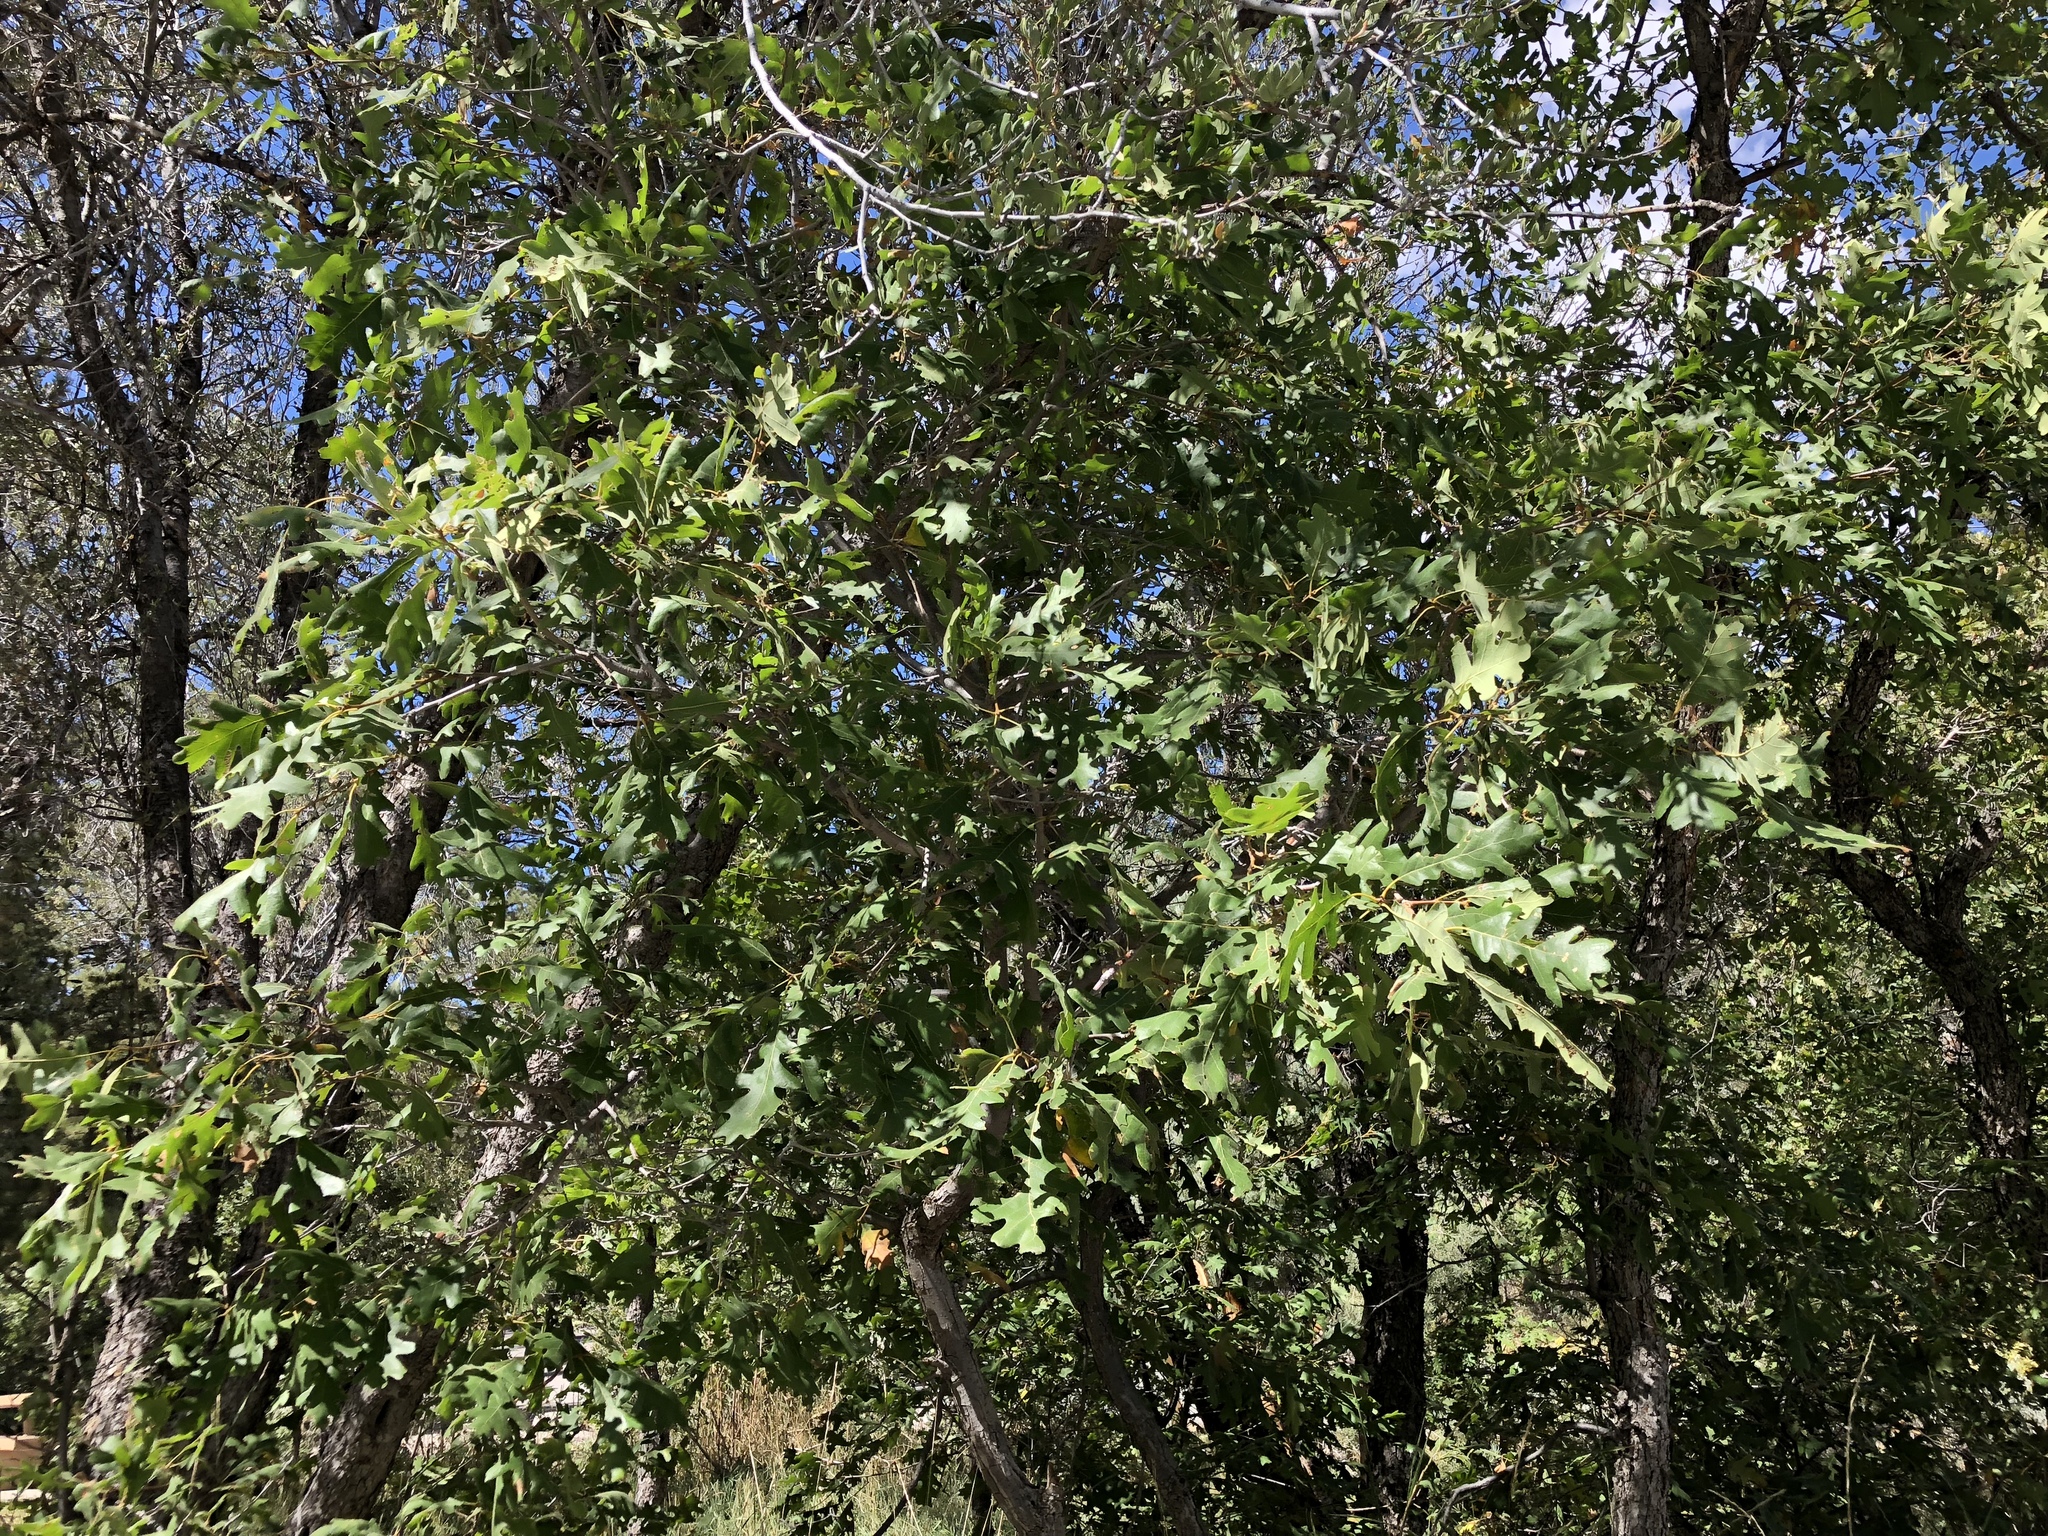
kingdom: Plantae
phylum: Tracheophyta
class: Magnoliopsida
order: Fagales
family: Fagaceae
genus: Quercus
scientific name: Quercus gambelii
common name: Gambel oak
